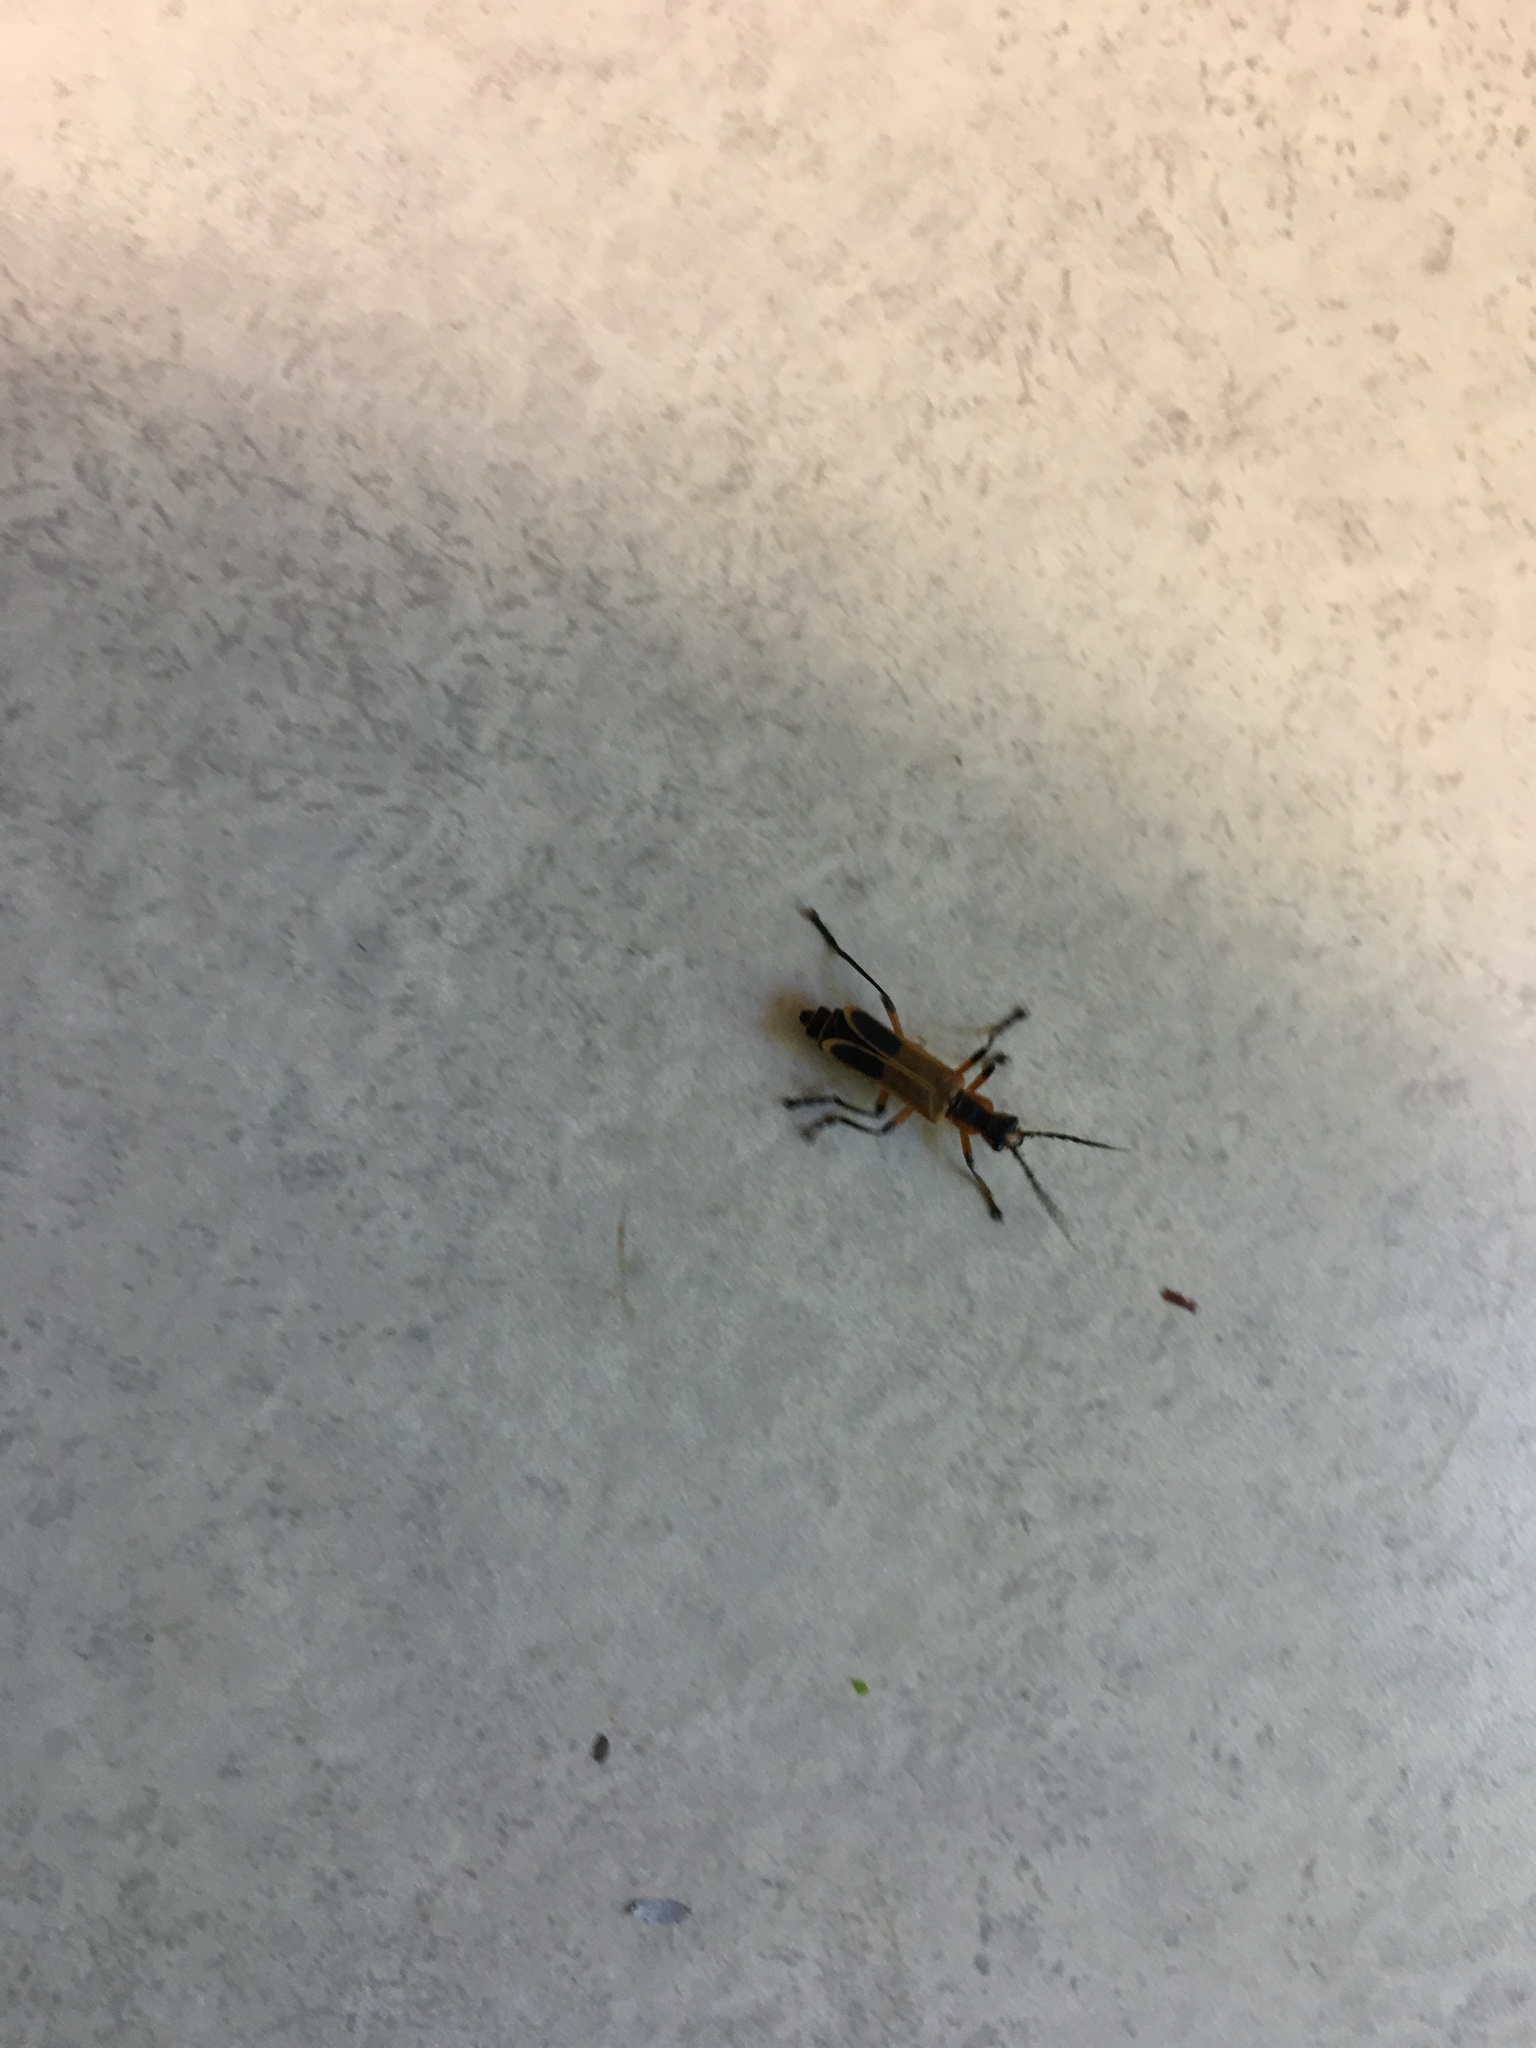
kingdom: Animalia
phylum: Arthropoda
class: Insecta
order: Coleoptera
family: Cantharidae
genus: Chauliognathus
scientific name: Chauliognathus marginatus
